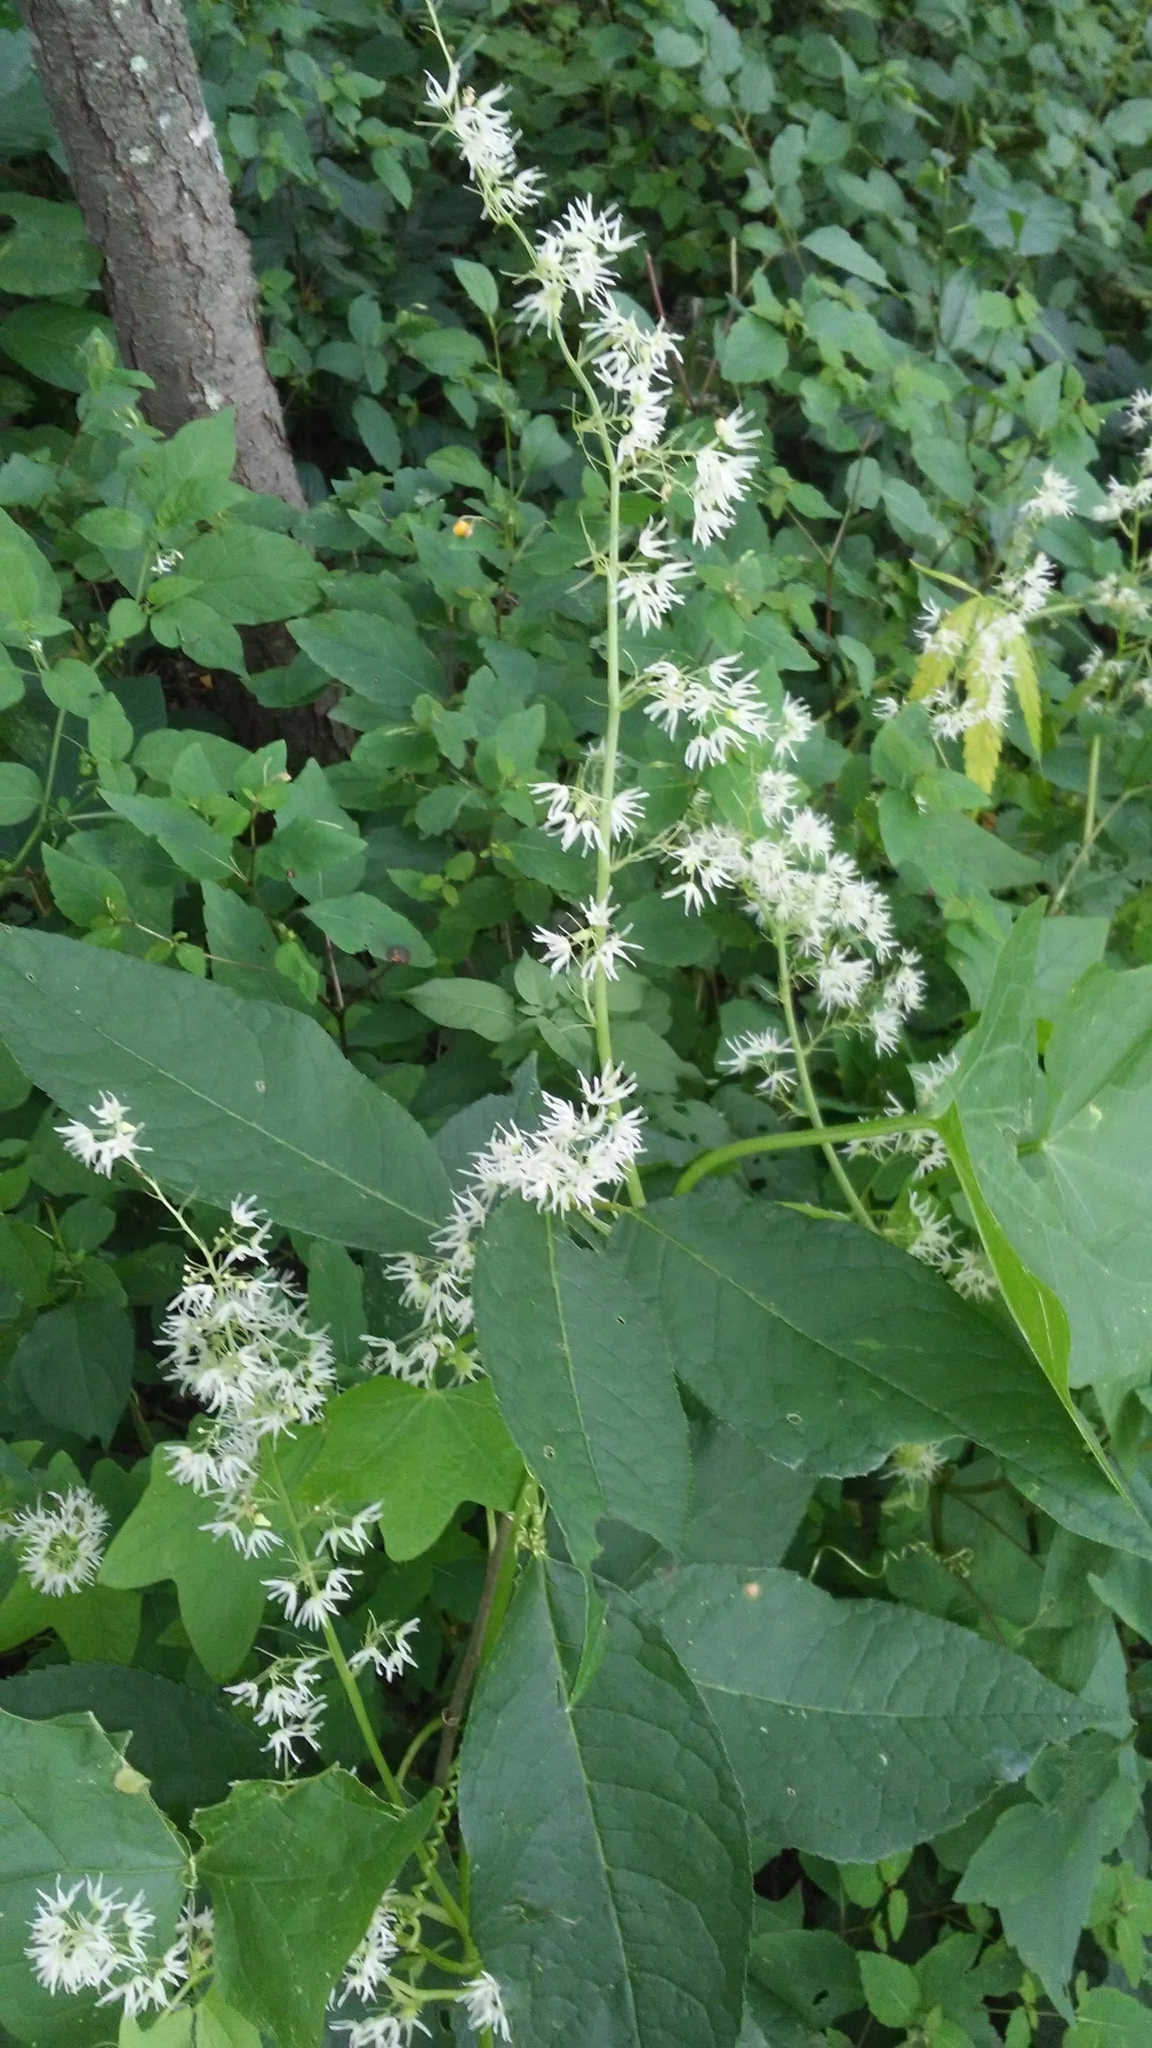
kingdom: Plantae
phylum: Tracheophyta
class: Magnoliopsida
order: Cucurbitales
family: Cucurbitaceae
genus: Echinocystis
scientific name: Echinocystis lobata
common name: Wild cucumber
